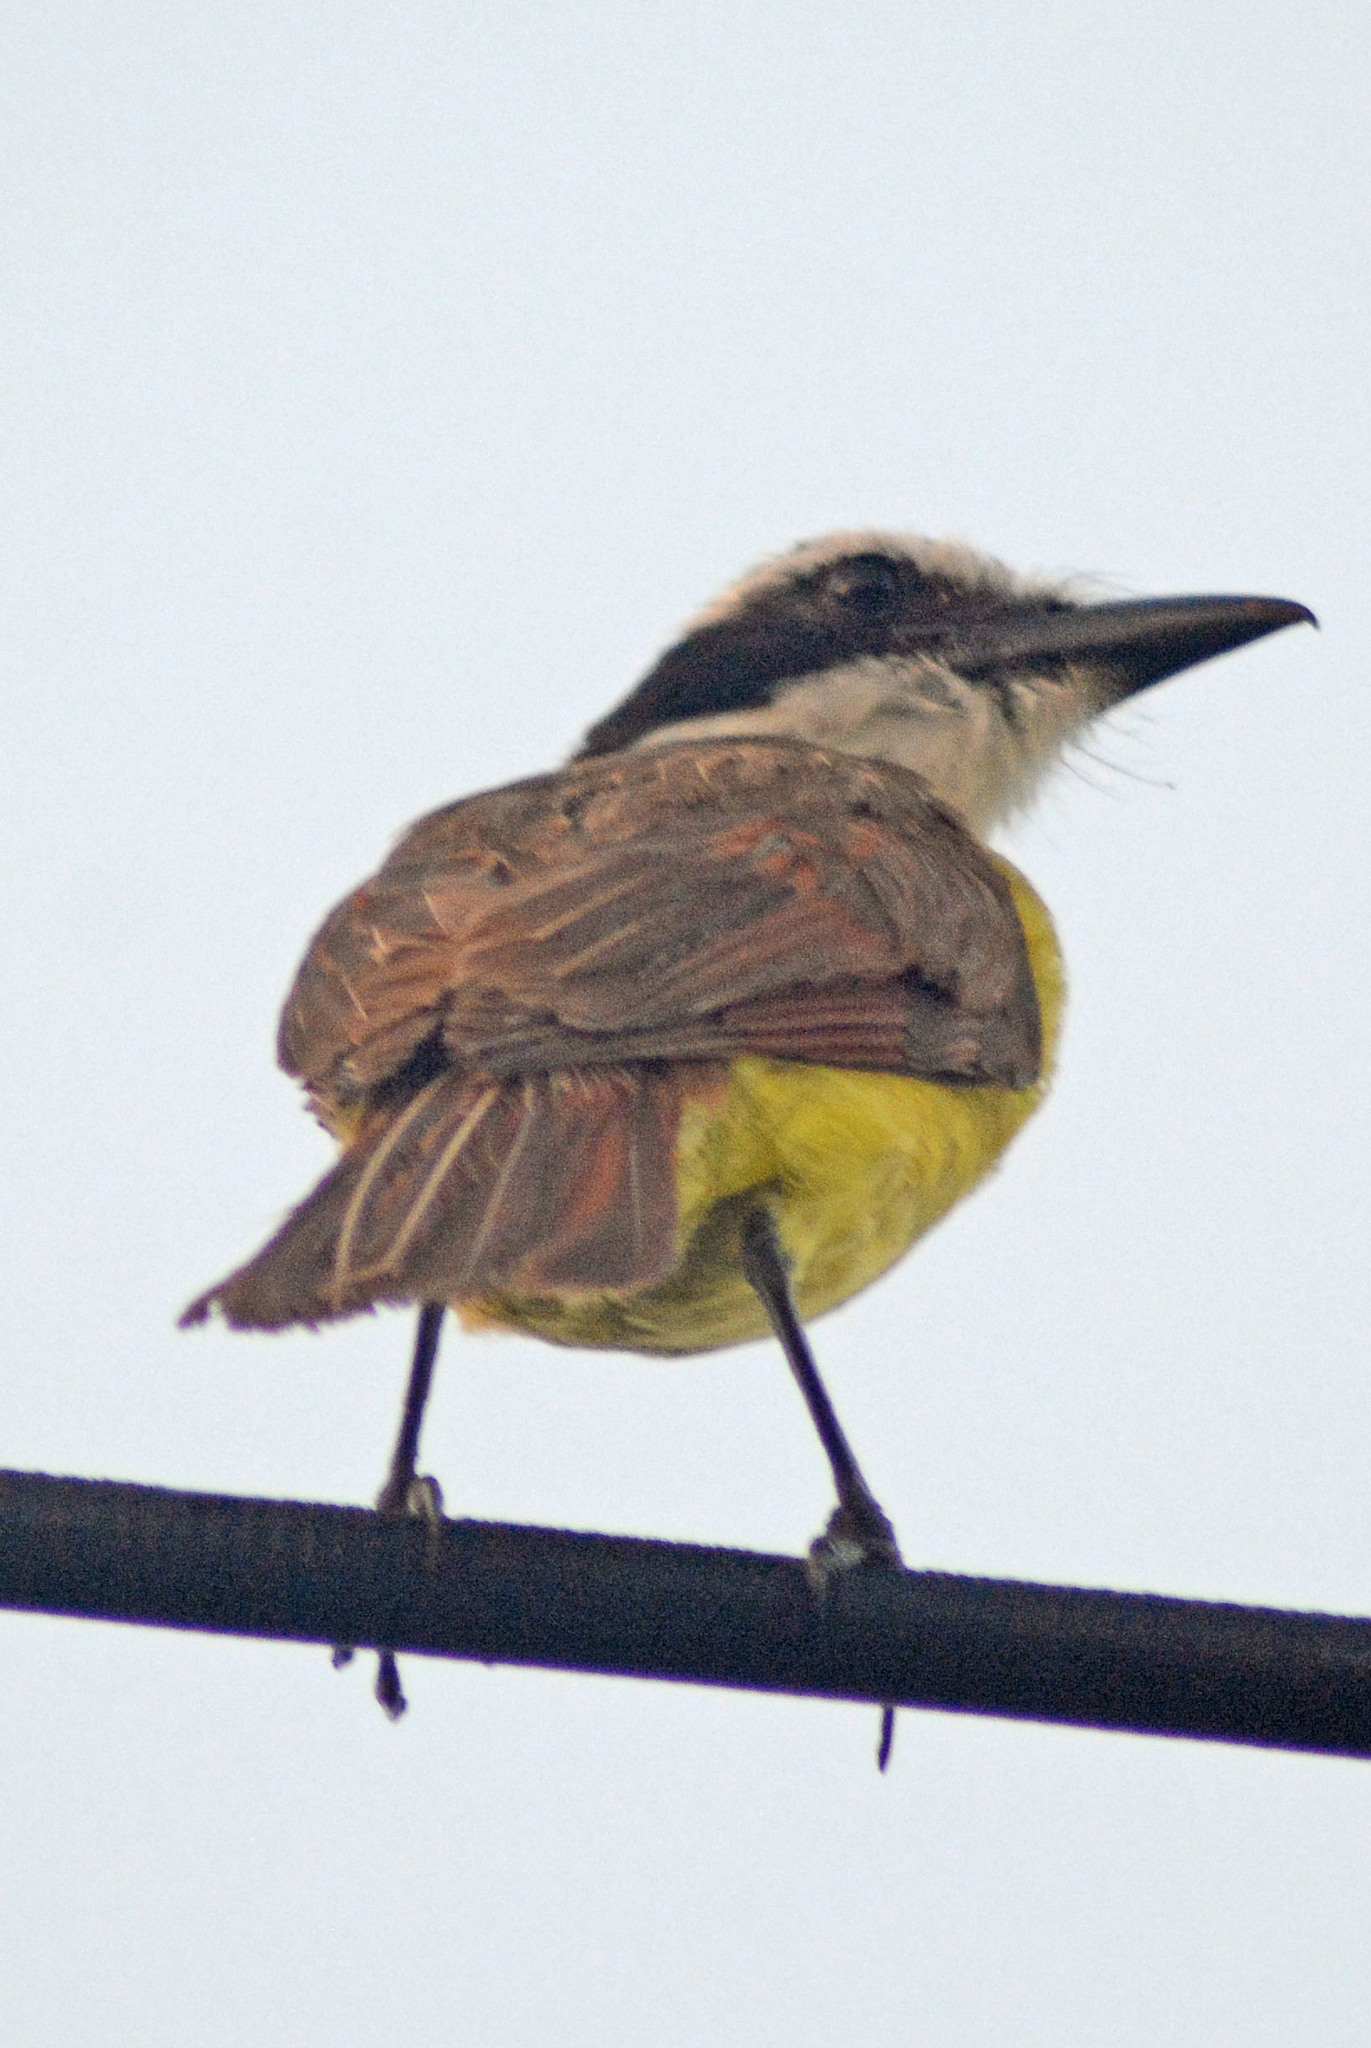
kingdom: Animalia
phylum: Chordata
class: Aves
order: Passeriformes
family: Tyrannidae
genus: Pitangus
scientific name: Pitangus sulphuratus
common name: Great kiskadee
